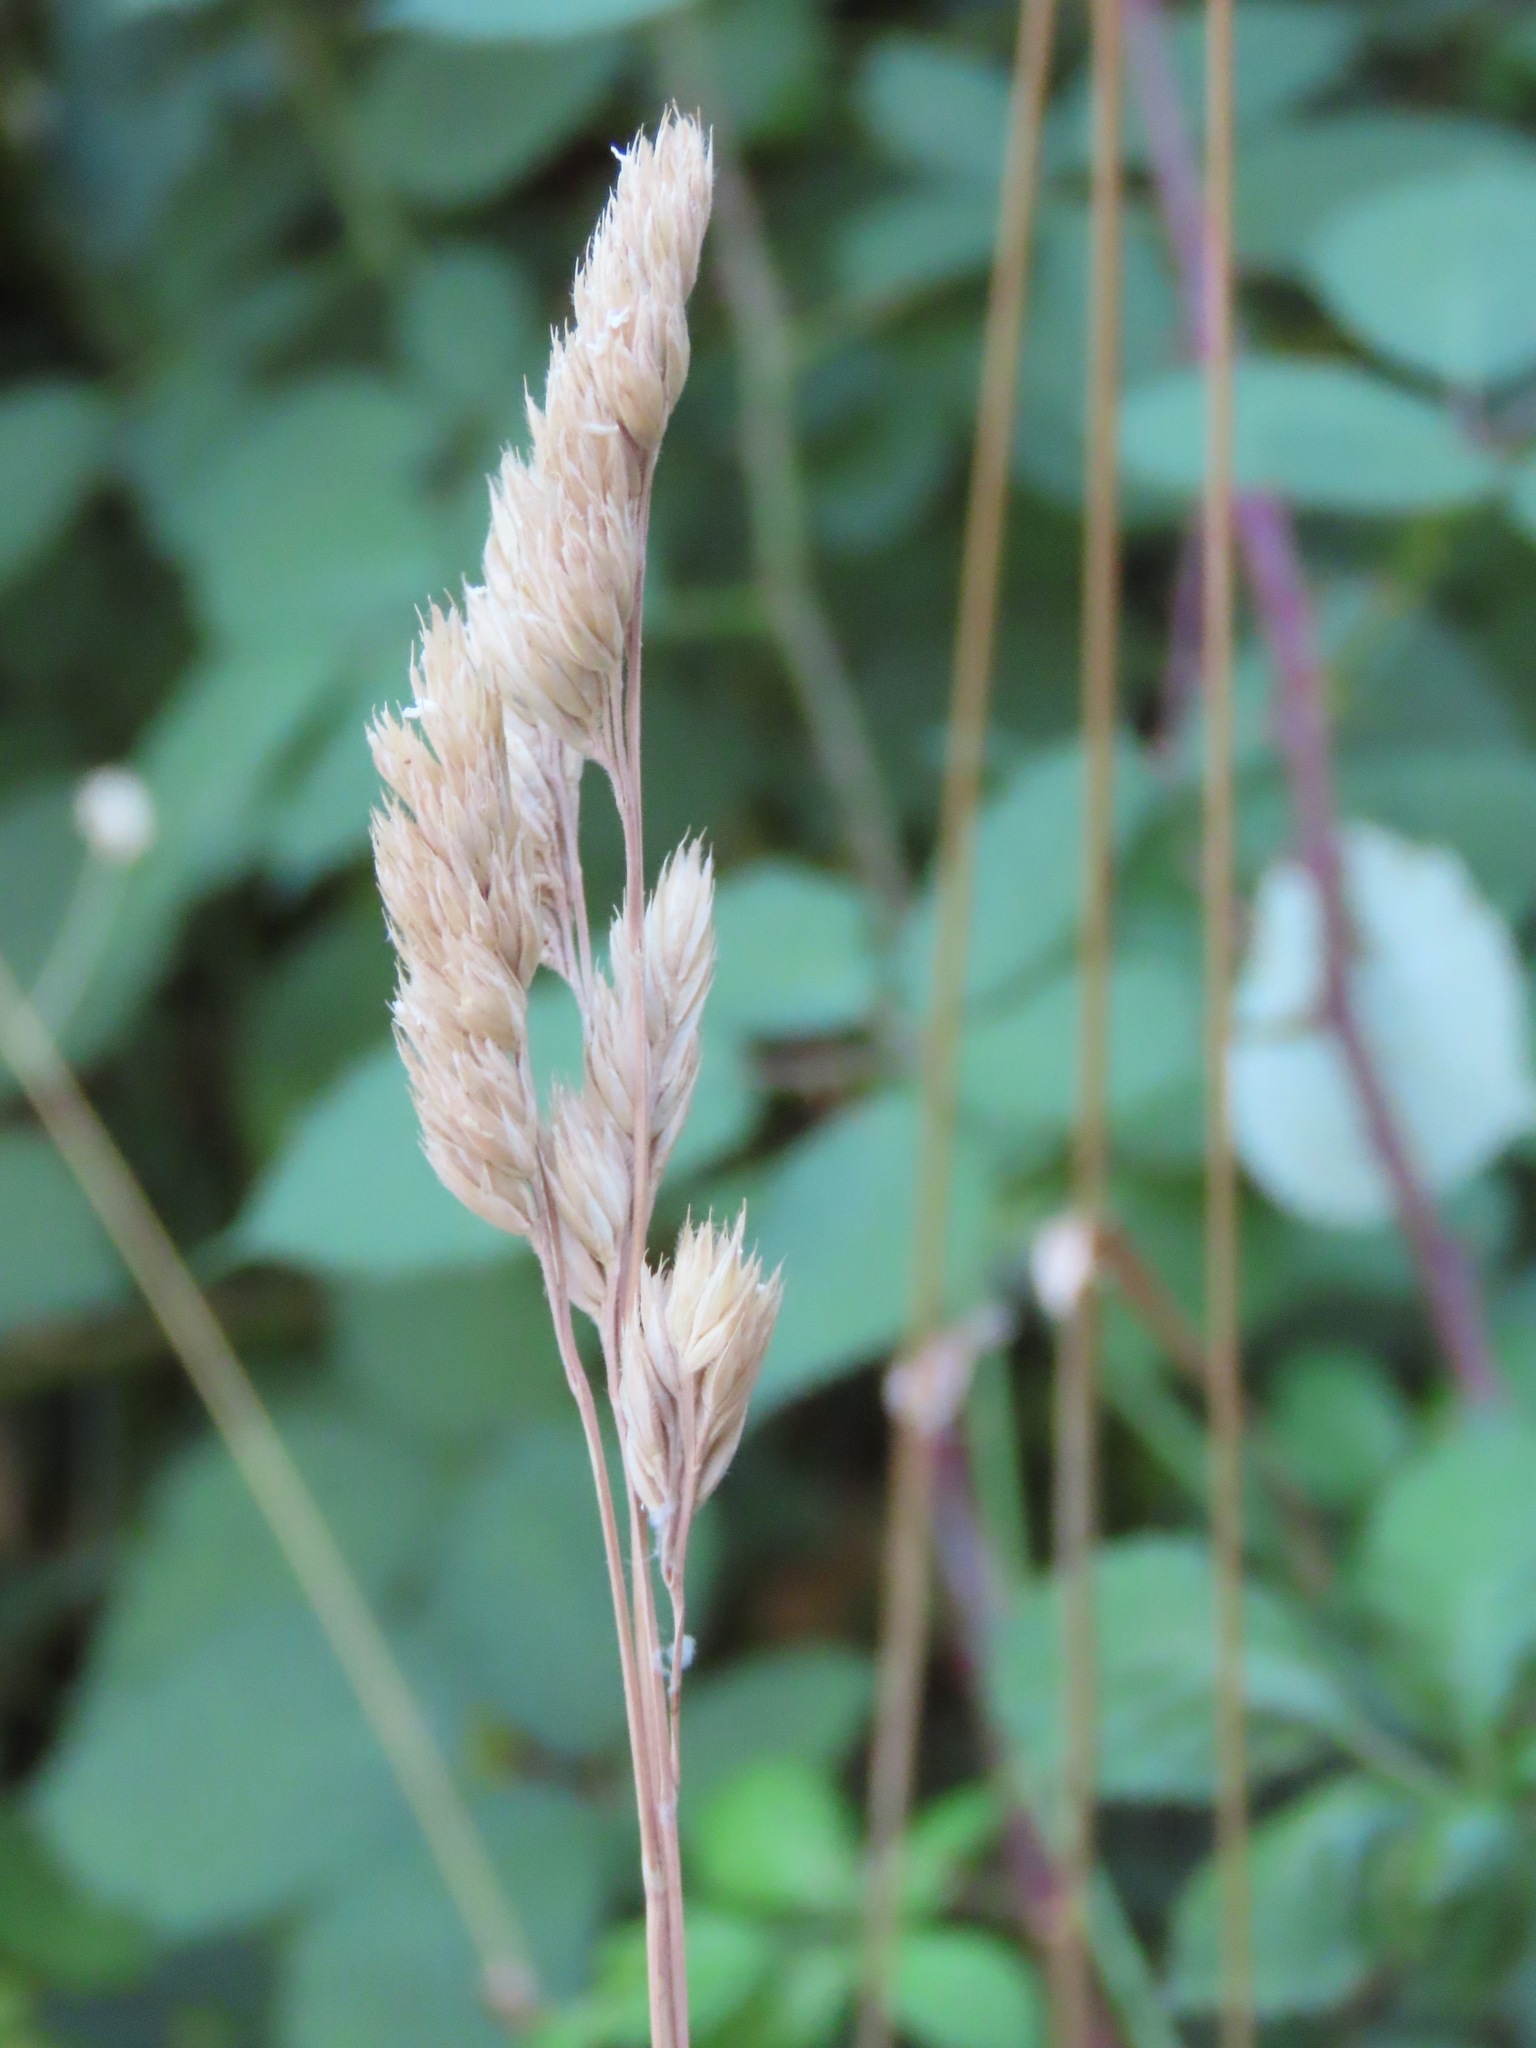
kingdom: Plantae
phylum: Tracheophyta
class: Liliopsida
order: Poales
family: Poaceae
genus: Dactylis
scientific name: Dactylis glomerata
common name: Orchardgrass
